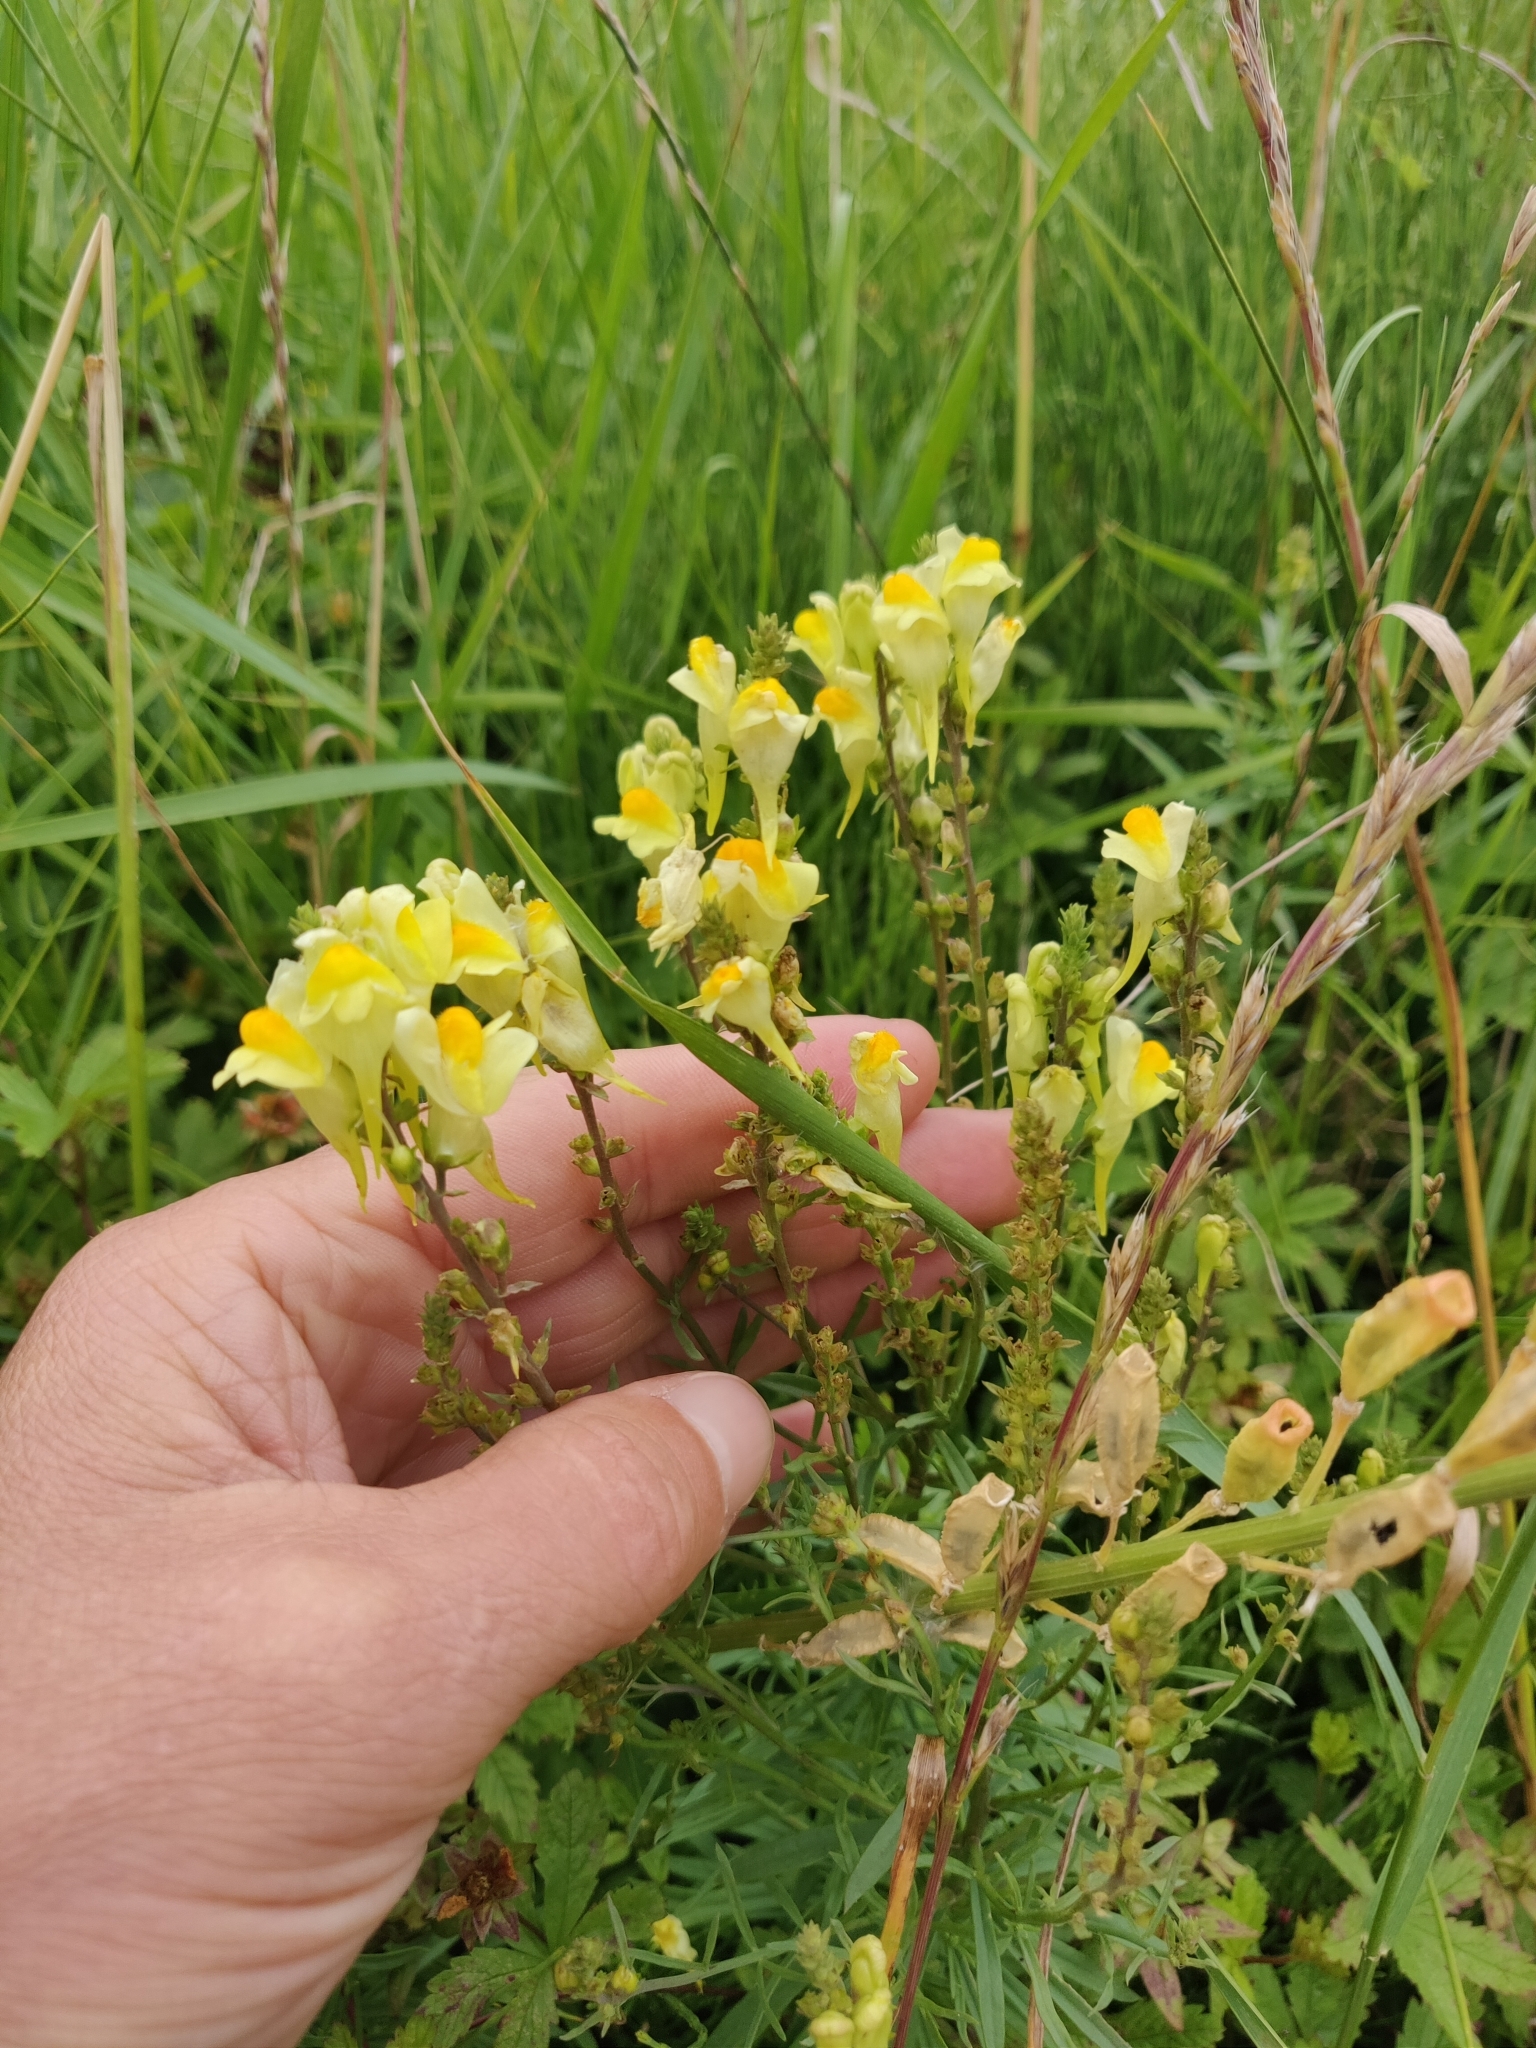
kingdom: Plantae
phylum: Tracheophyta
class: Magnoliopsida
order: Lamiales
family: Plantaginaceae
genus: Linaria
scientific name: Linaria vulgaris
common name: Butter and eggs
